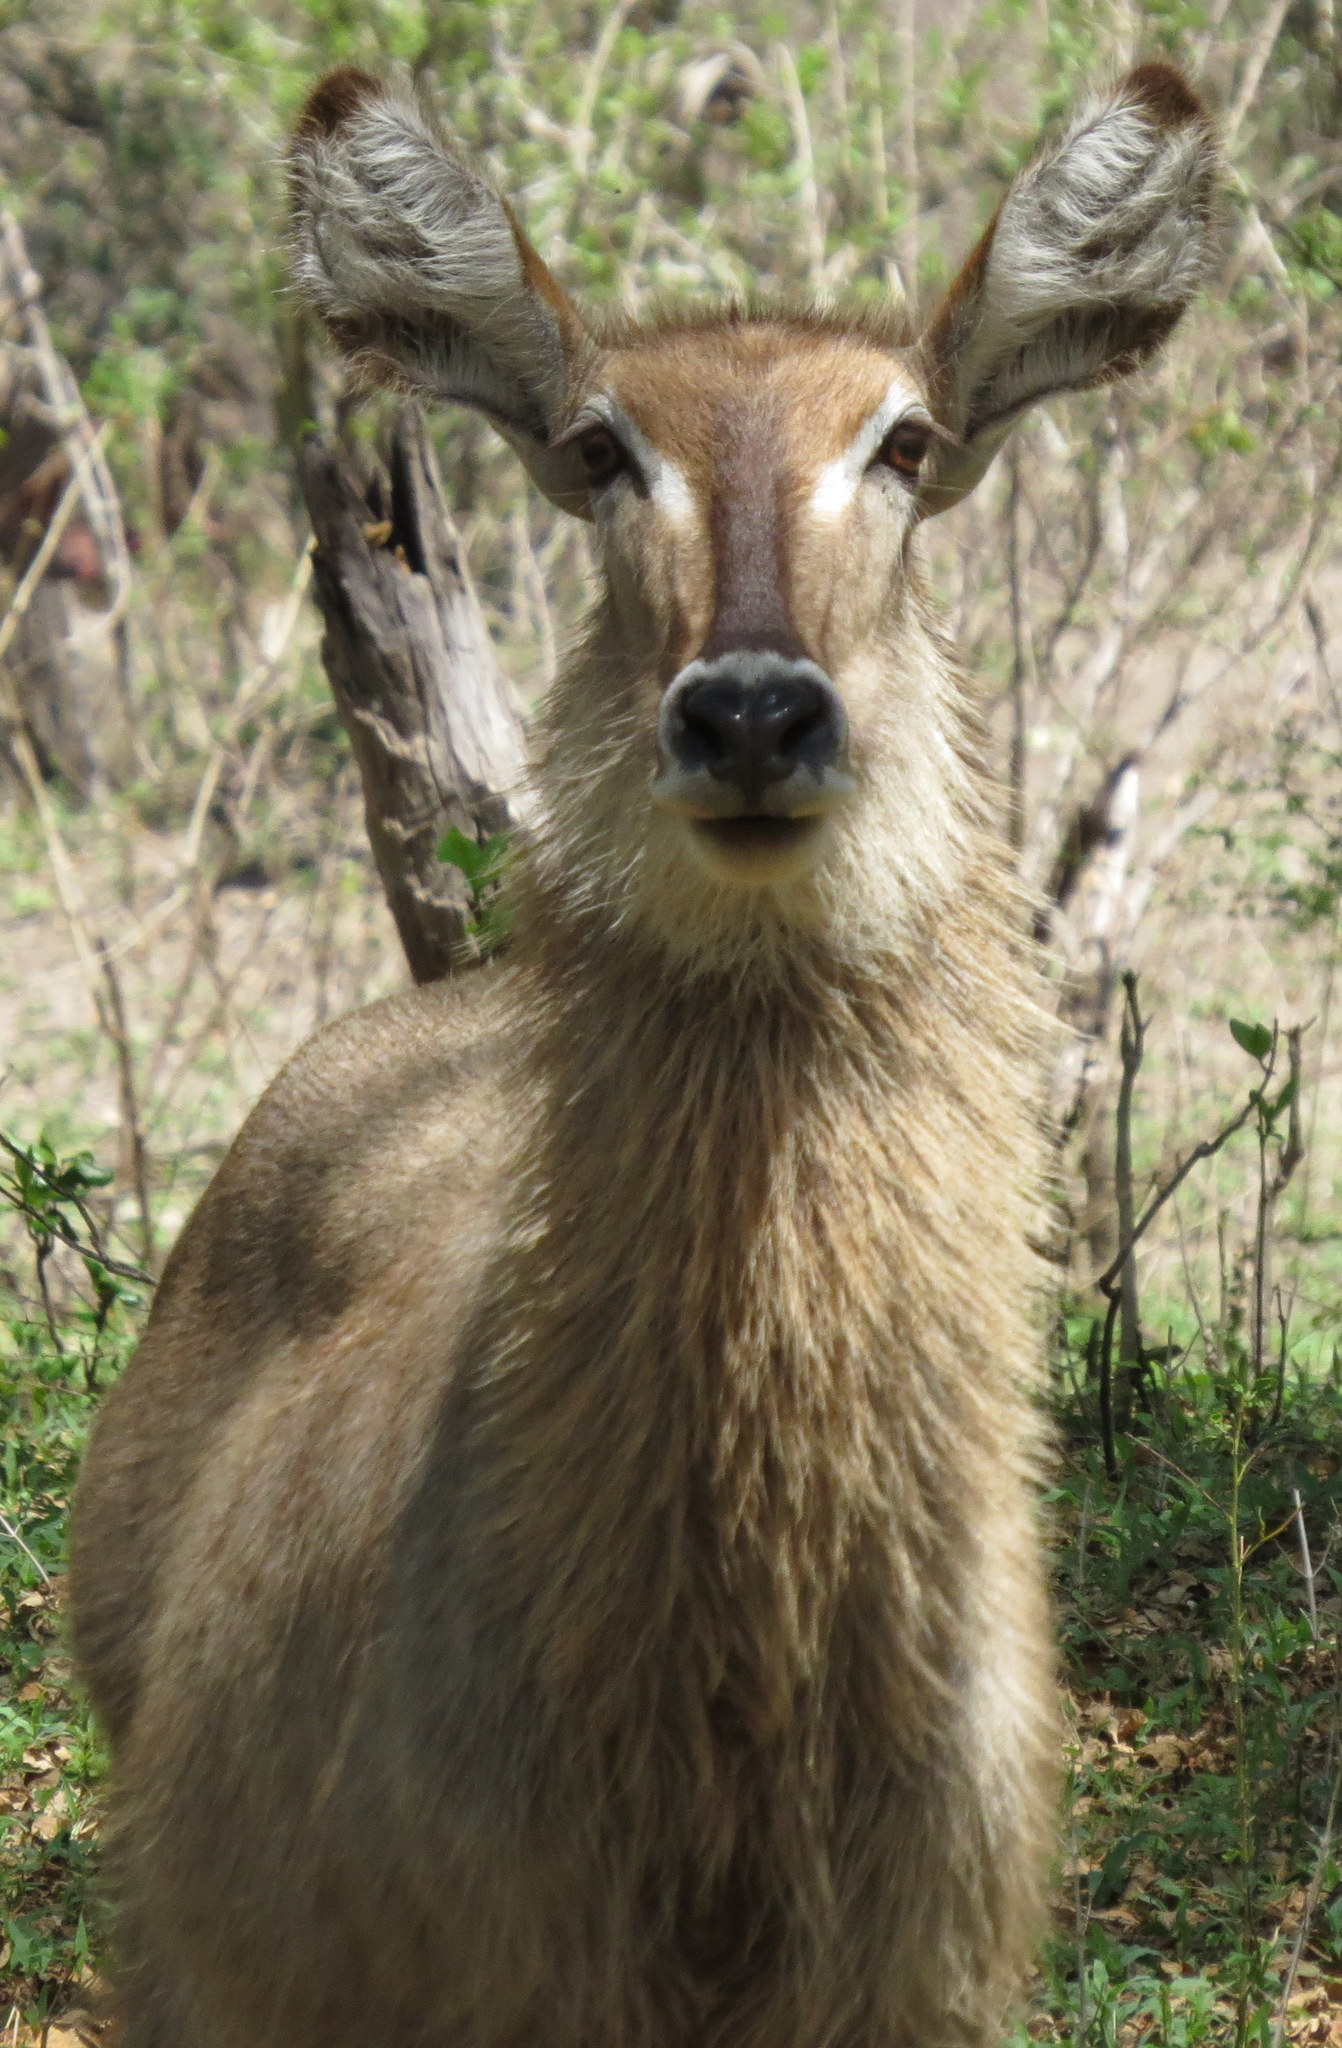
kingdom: Animalia
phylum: Chordata
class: Mammalia
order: Artiodactyla
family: Bovidae
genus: Kobus
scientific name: Kobus ellipsiprymnus
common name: Waterbuck
